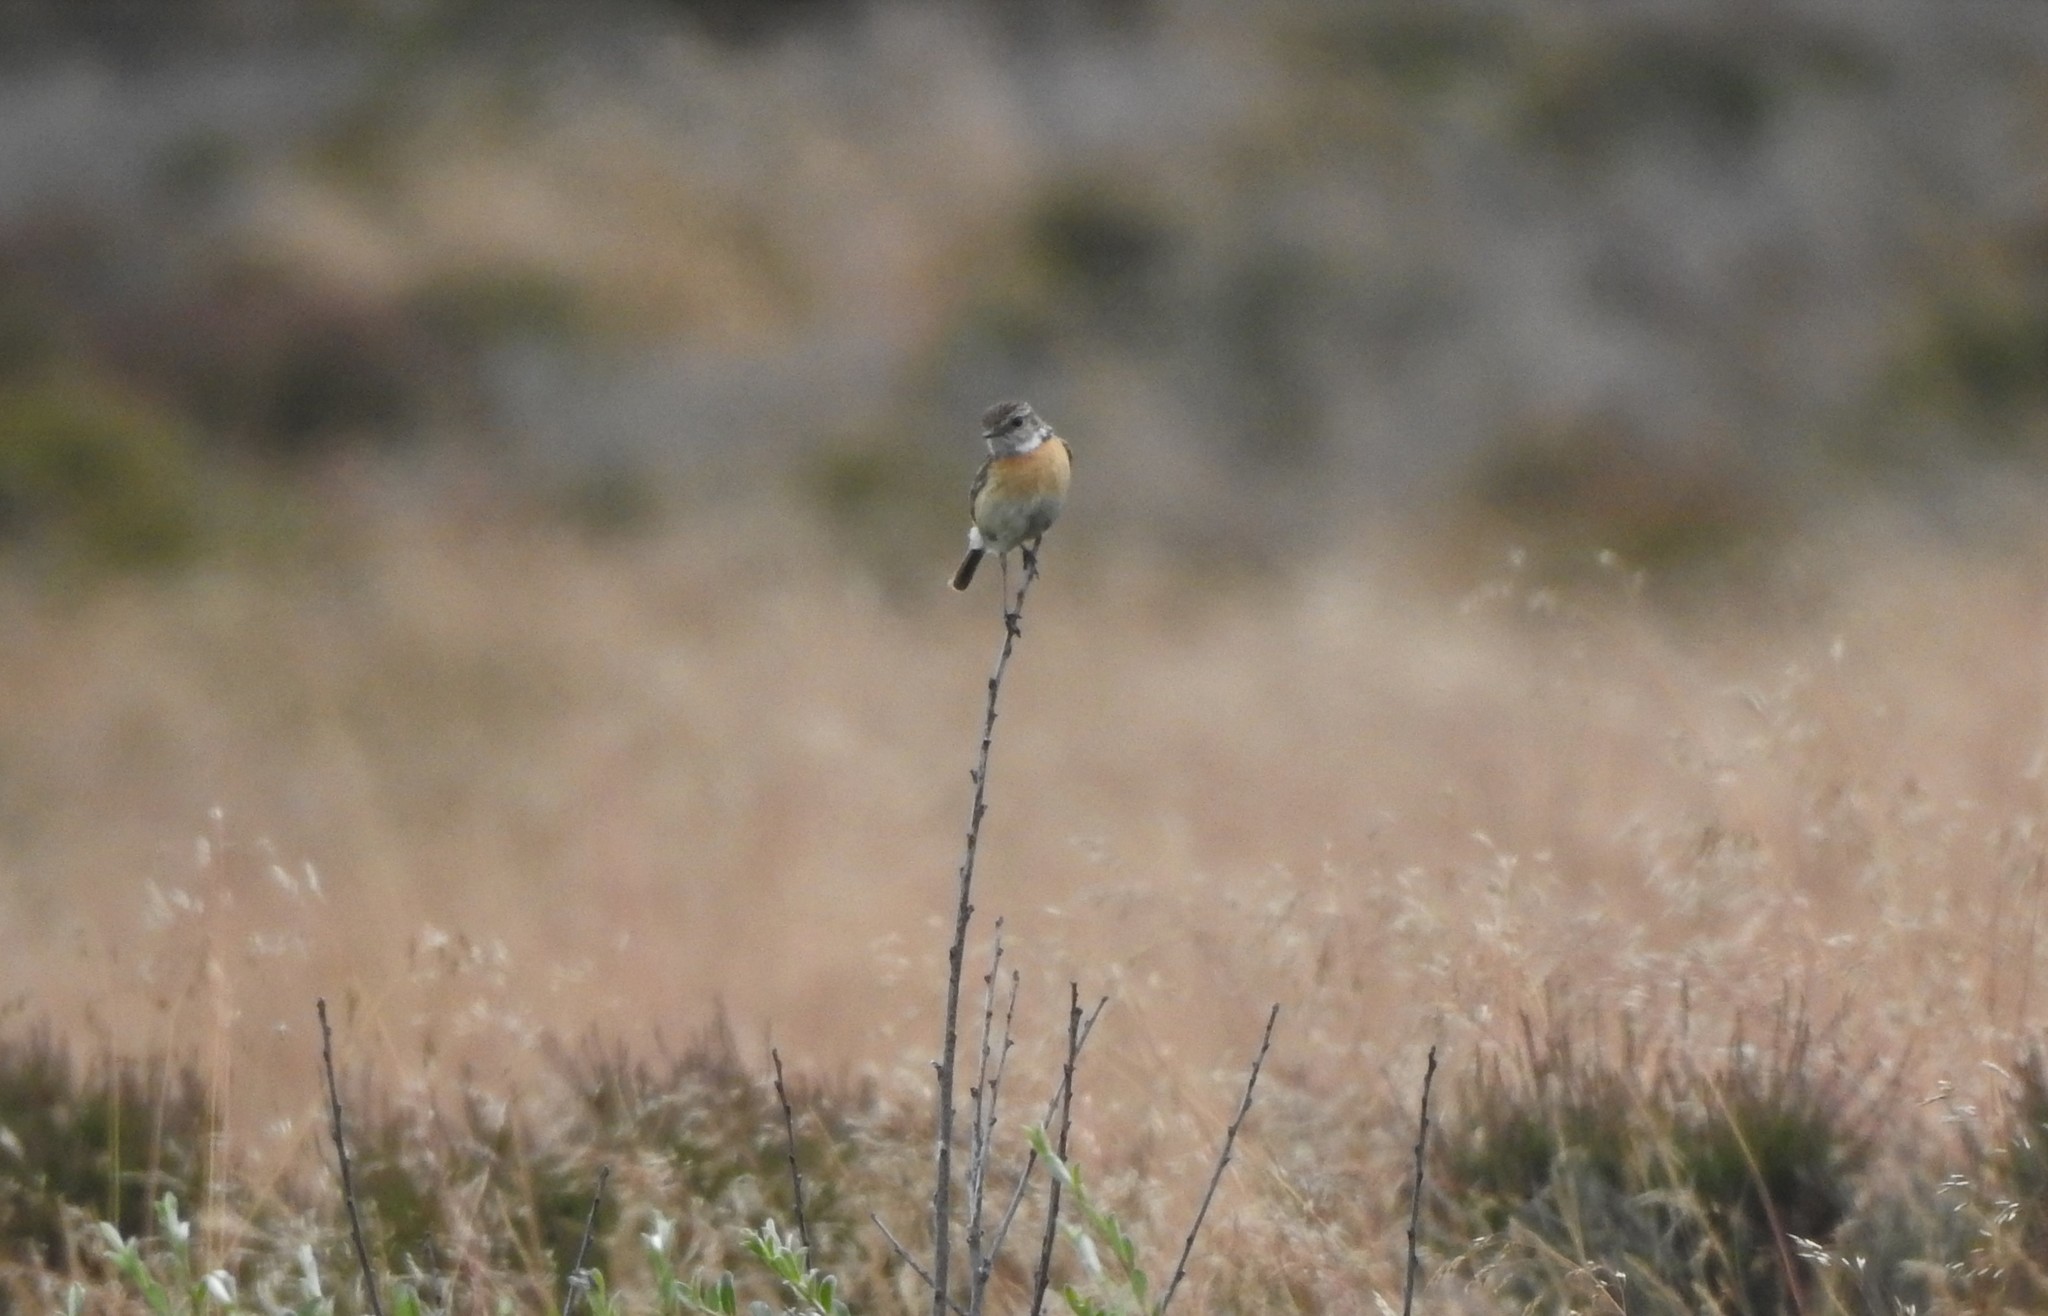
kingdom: Animalia
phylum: Chordata
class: Aves
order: Passeriformes
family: Muscicapidae
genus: Saxicola
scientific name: Saxicola rubicola
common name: European stonechat
